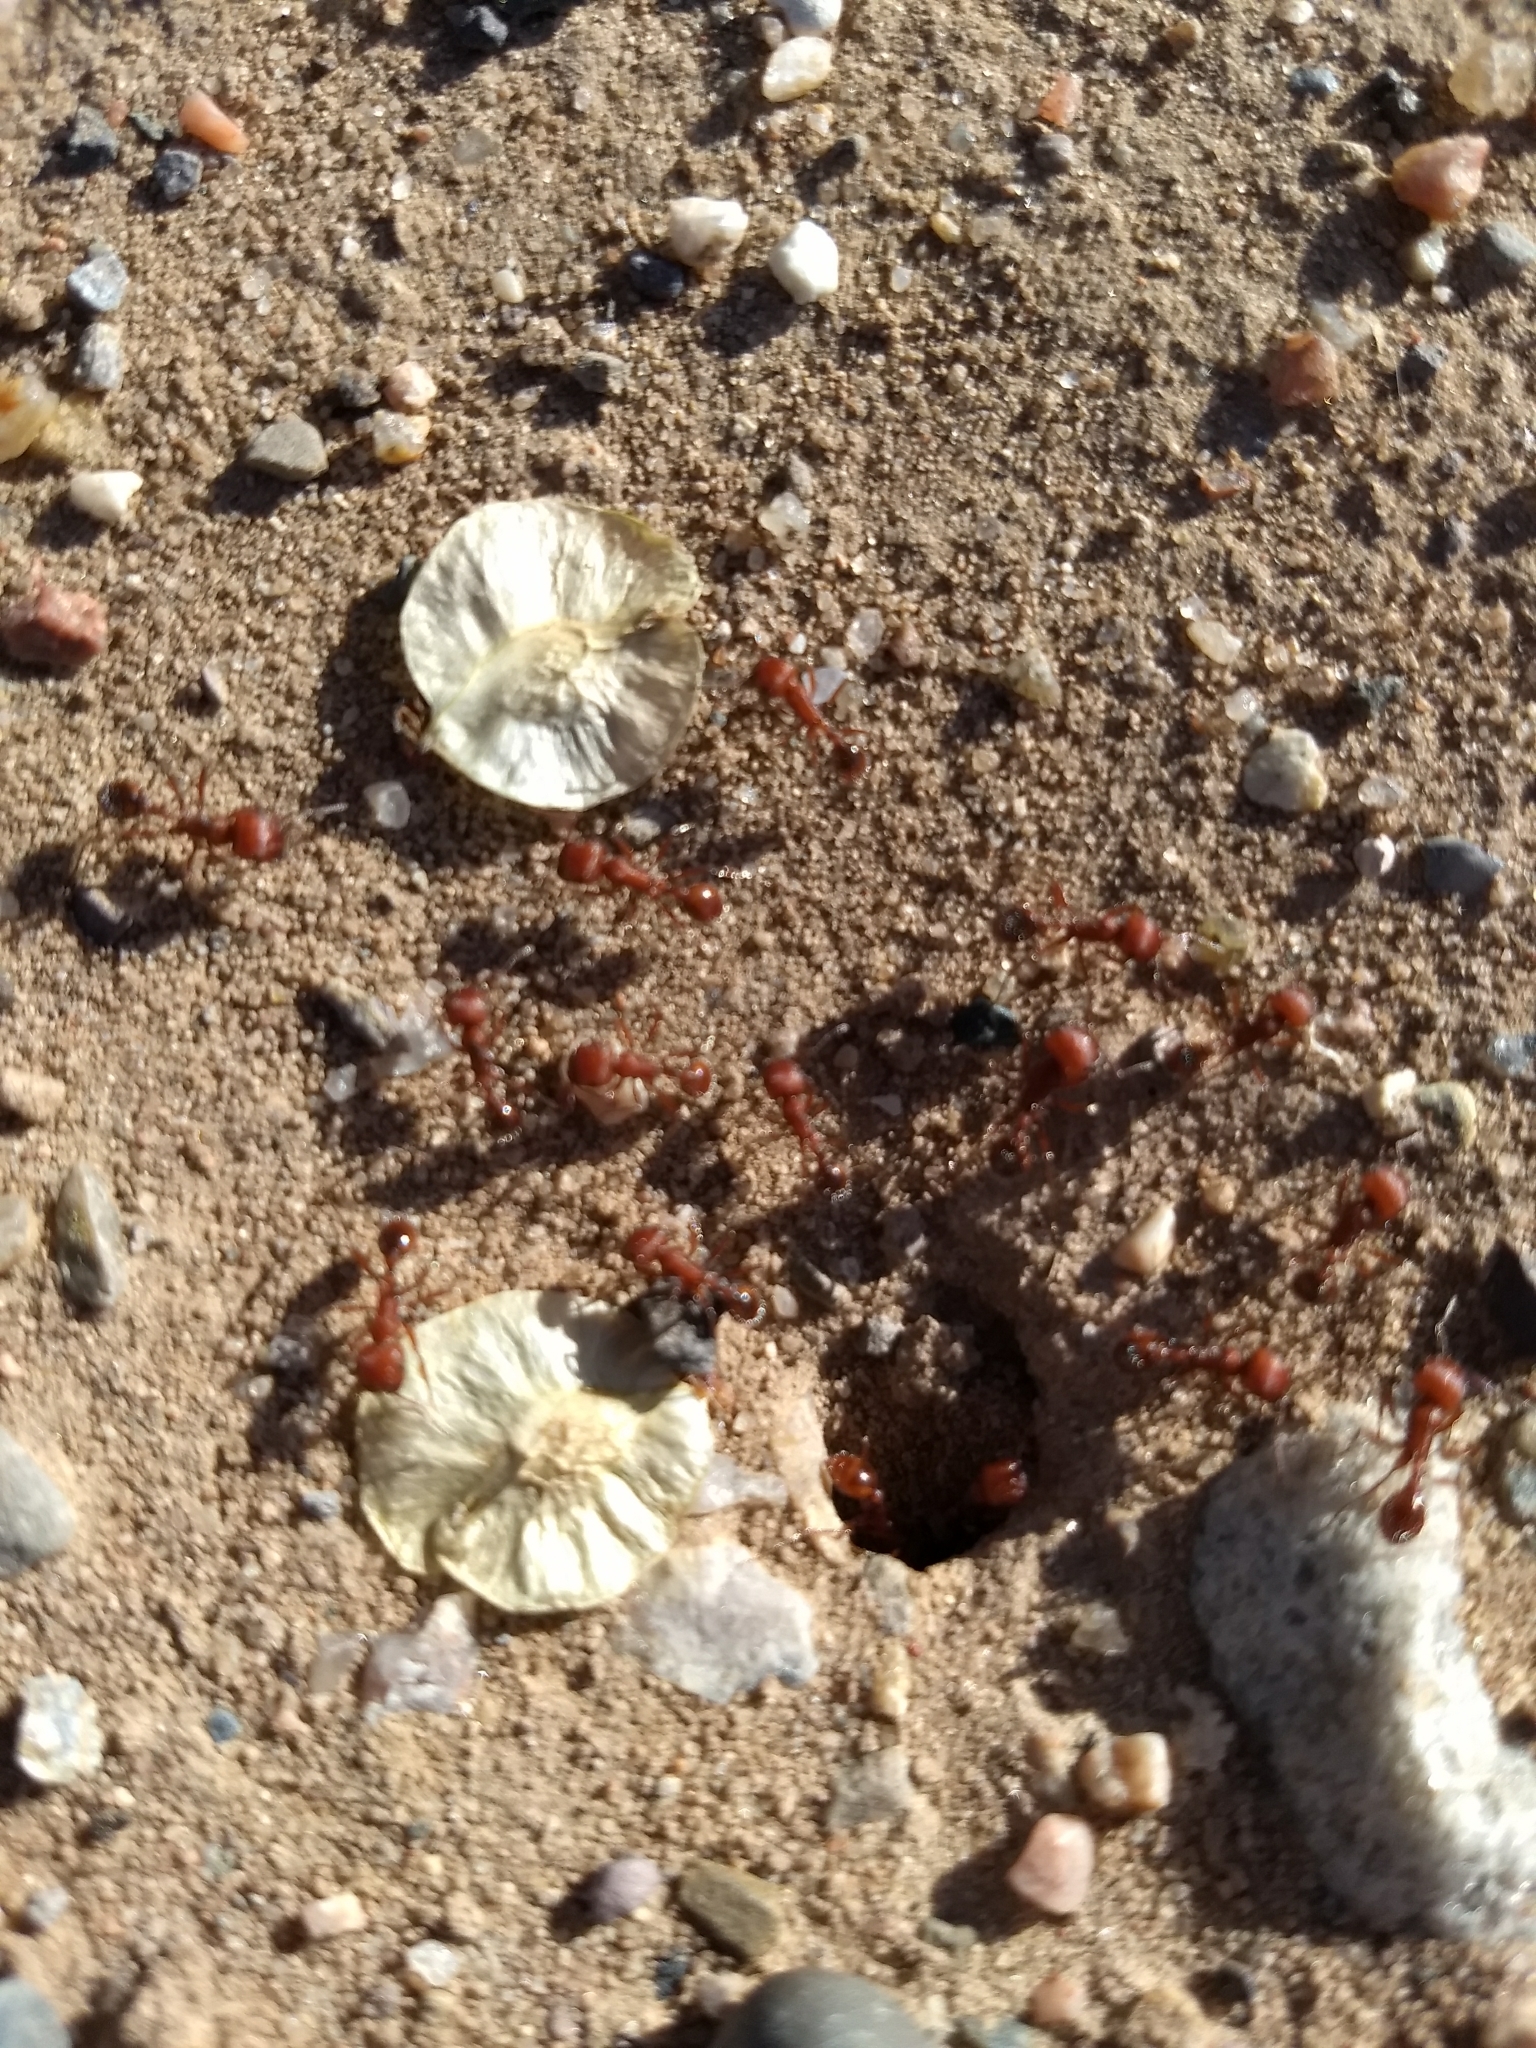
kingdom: Animalia
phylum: Arthropoda
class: Insecta
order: Hymenoptera
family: Formicidae
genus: Pogonomyrmex
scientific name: Pogonomyrmex occidentalis
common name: Western harvester ant
